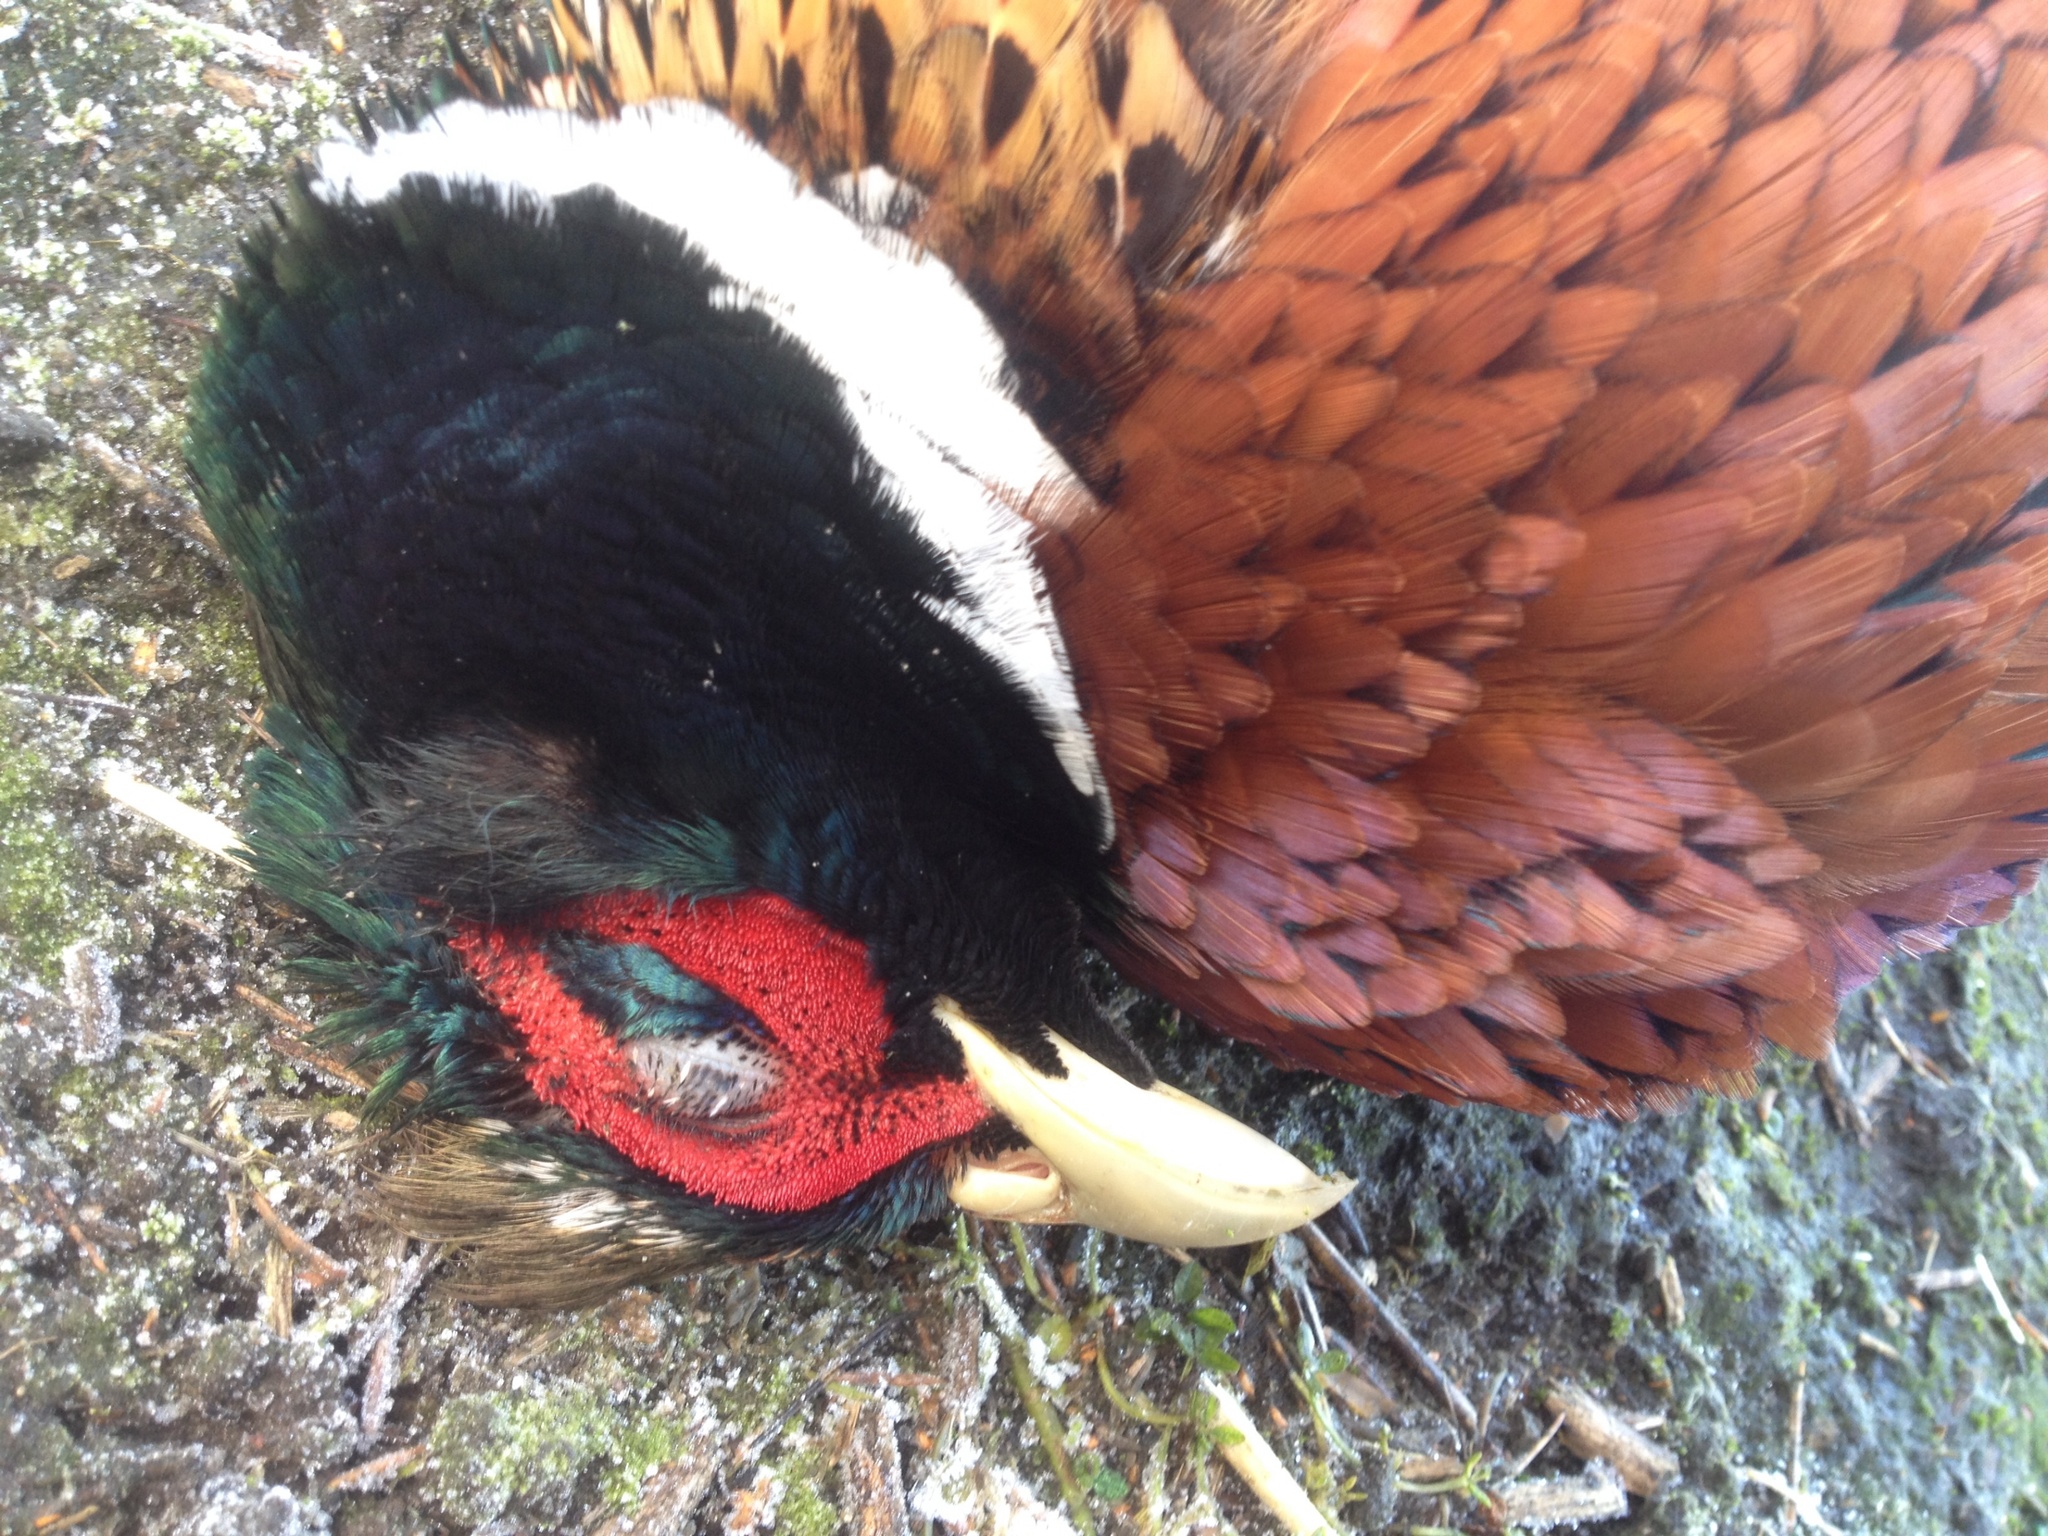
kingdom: Animalia
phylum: Chordata
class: Aves
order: Galliformes
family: Phasianidae
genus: Phasianus
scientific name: Phasianus colchicus
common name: Common pheasant
